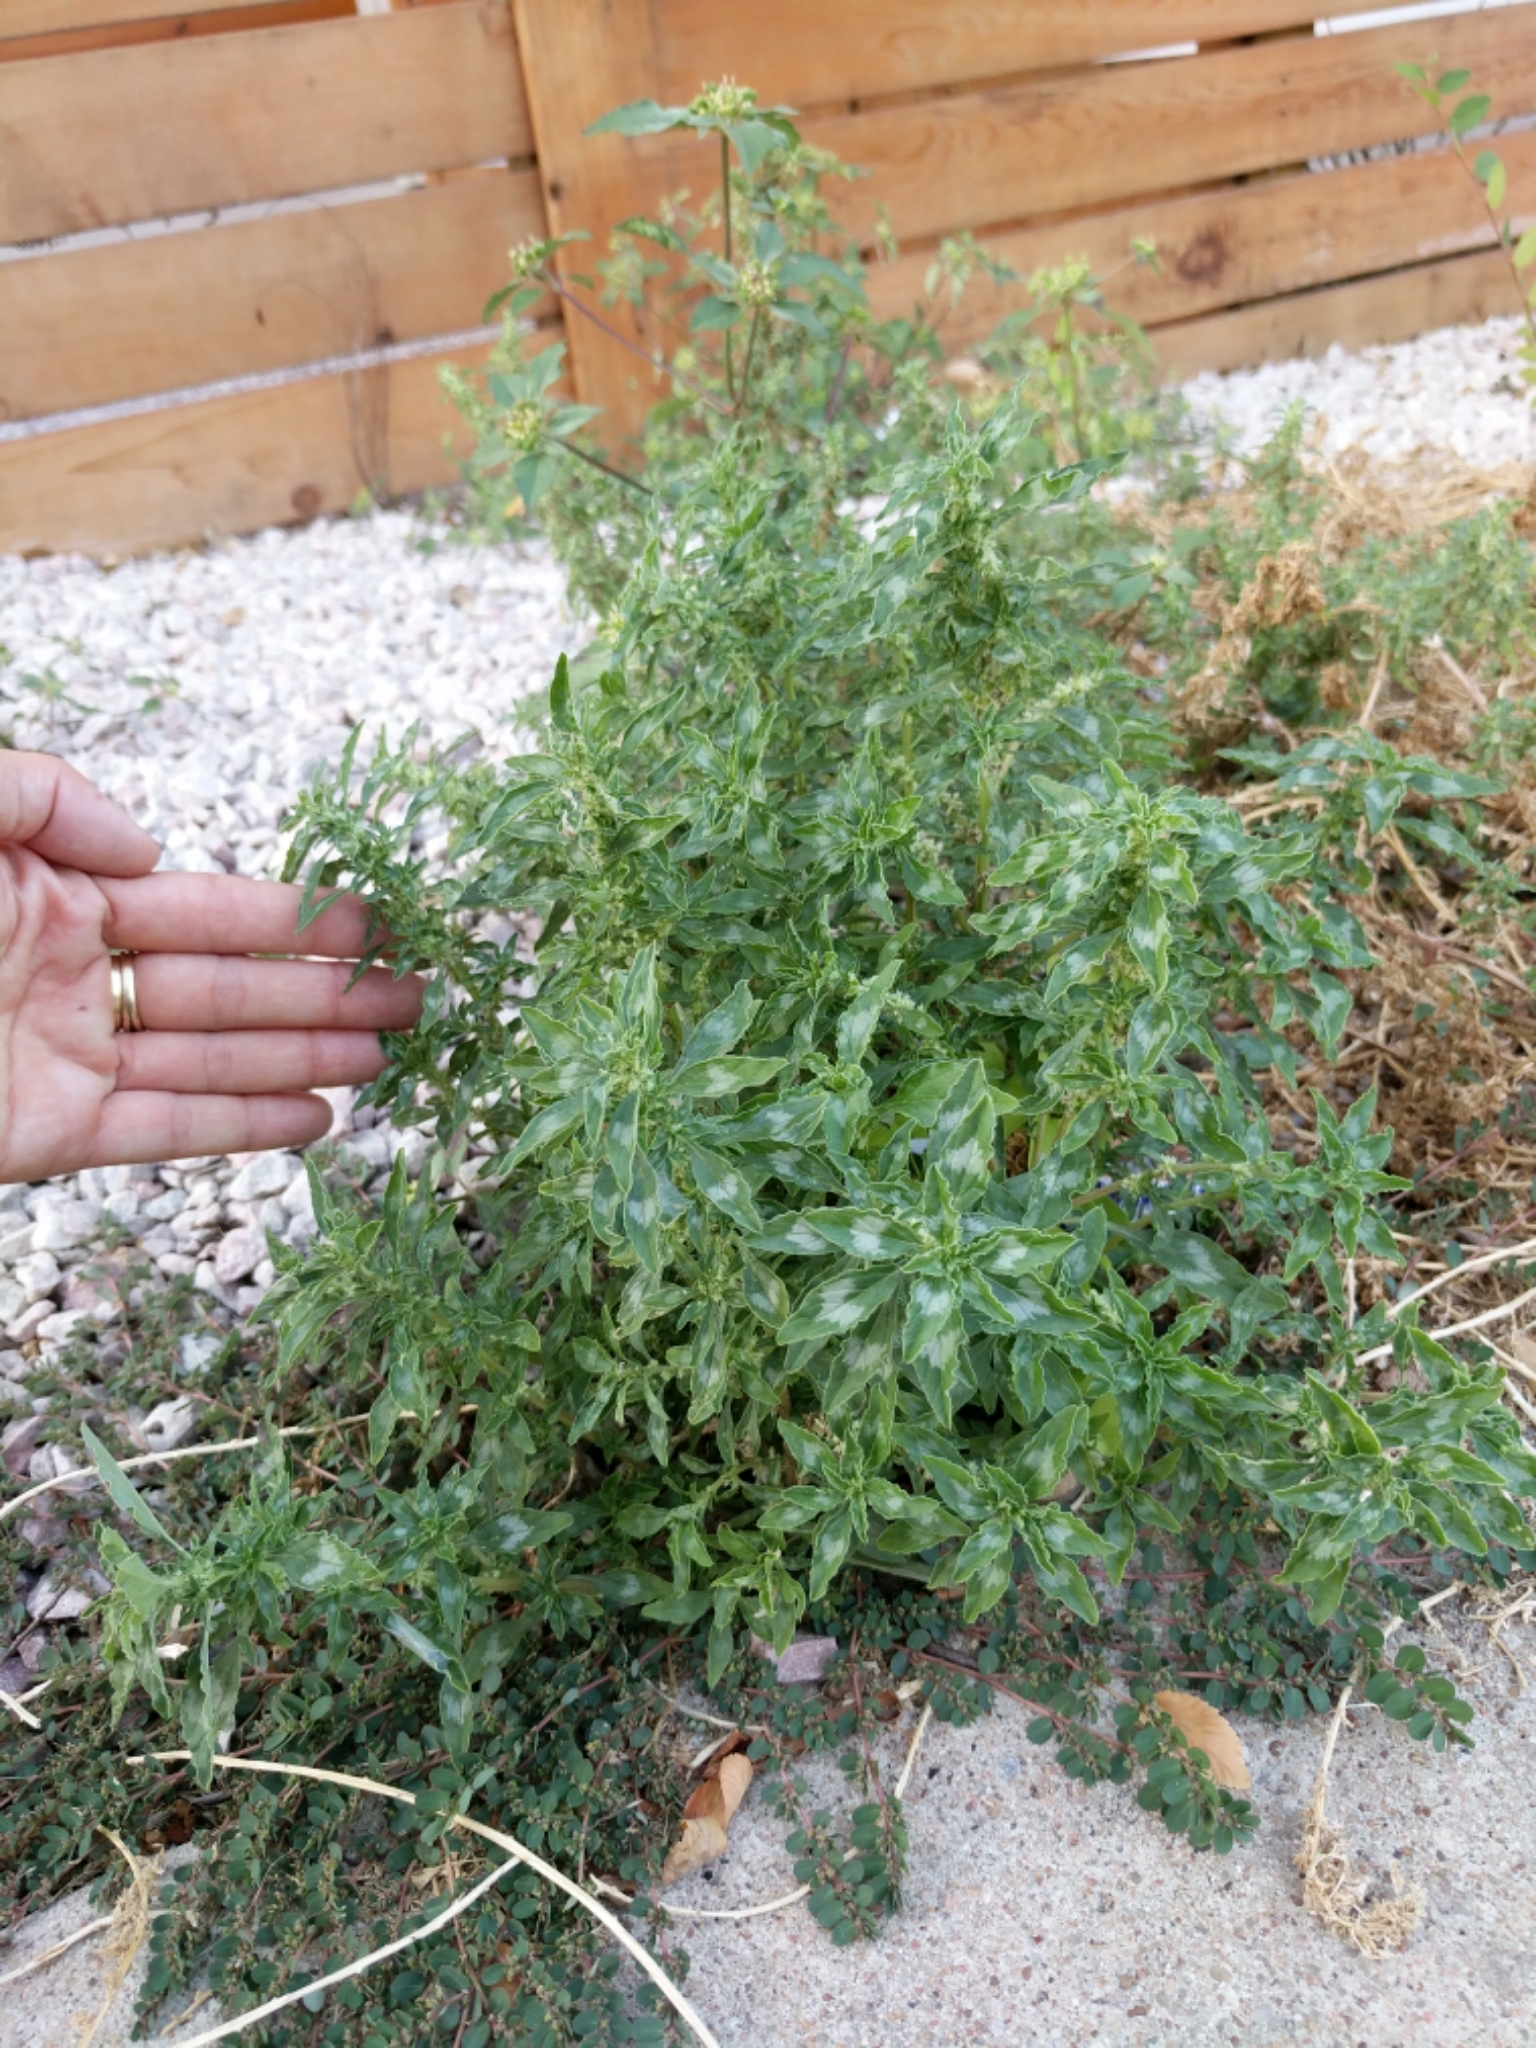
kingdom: Plantae
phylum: Tracheophyta
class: Magnoliopsida
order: Caryophyllales
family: Amaranthaceae
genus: Amaranthus
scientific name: Amaranthus polygonoides
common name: Tropical amaranth
